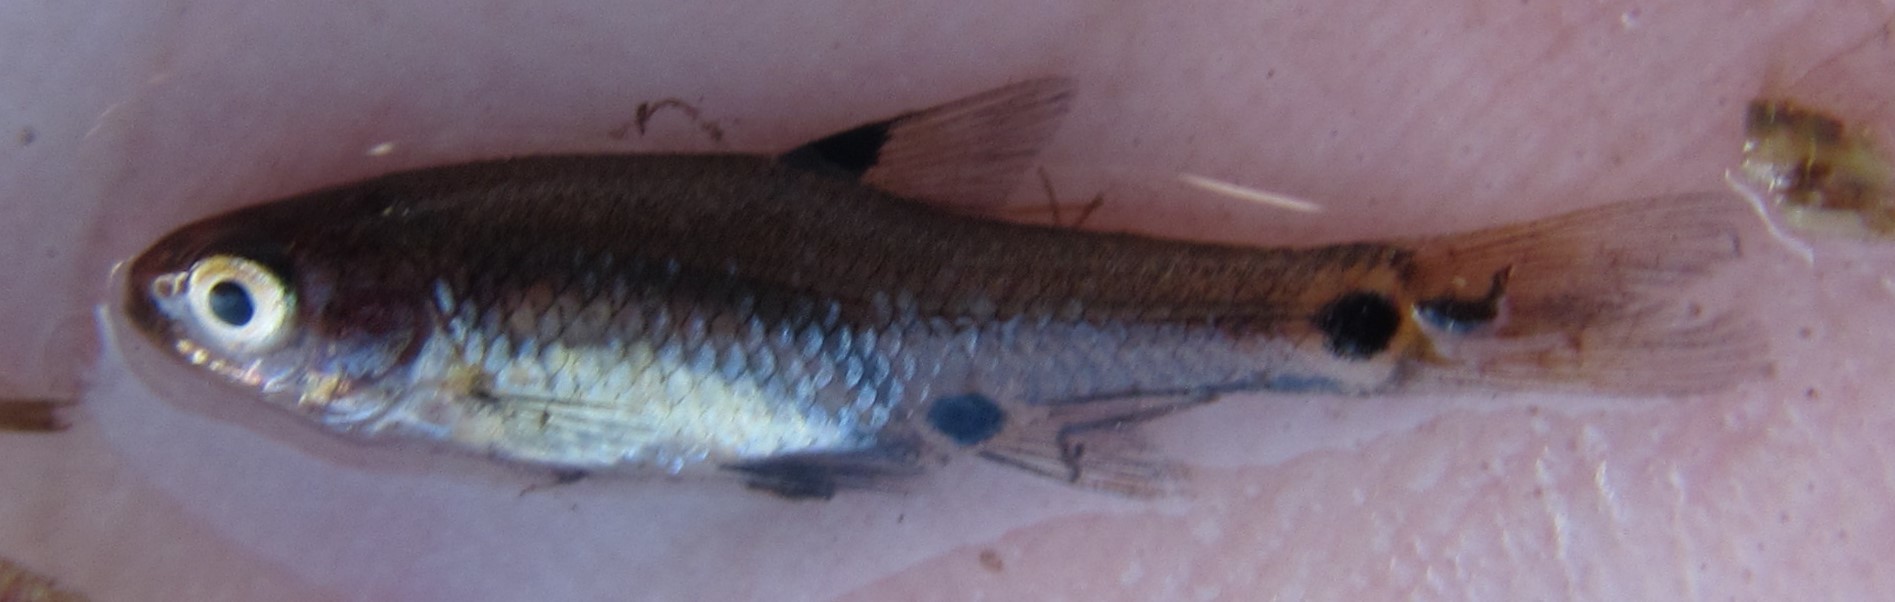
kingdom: Animalia
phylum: Chordata
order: Cypriniformes
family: Cyprinidae
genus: Enteromius
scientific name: Enteromius haasianus
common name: Sickle-fin barb
